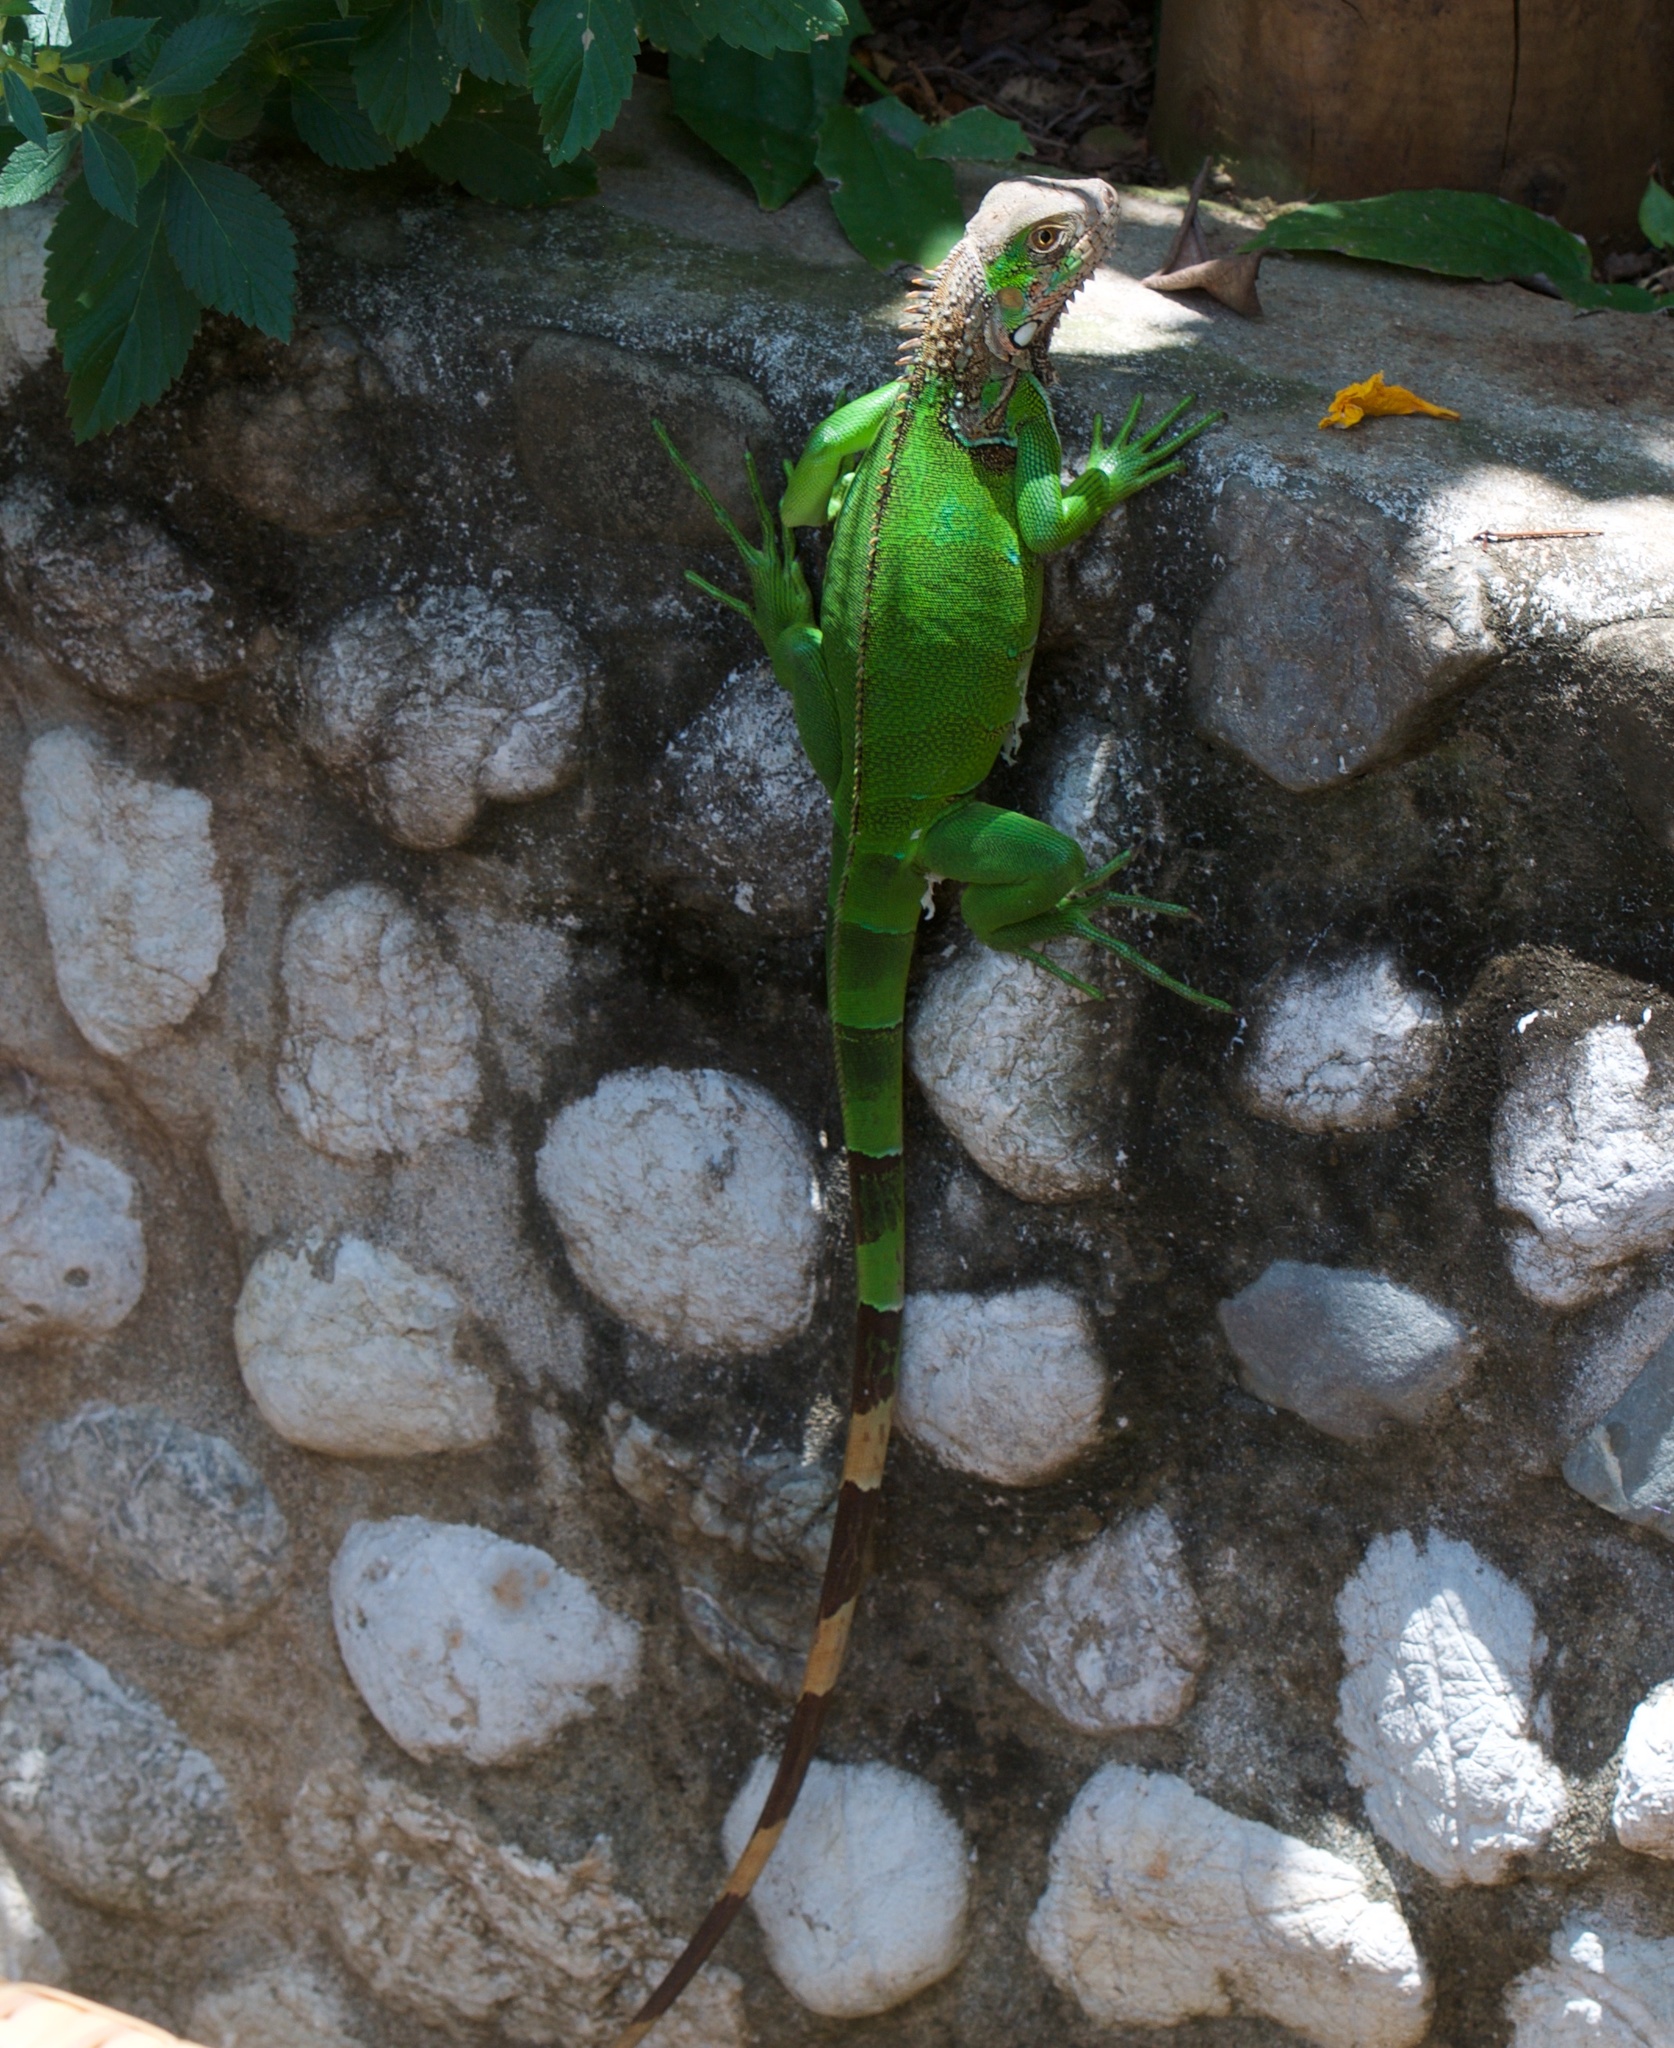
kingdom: Animalia
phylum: Chordata
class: Squamata
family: Iguanidae
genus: Iguana
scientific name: Iguana iguana
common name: Green iguana
